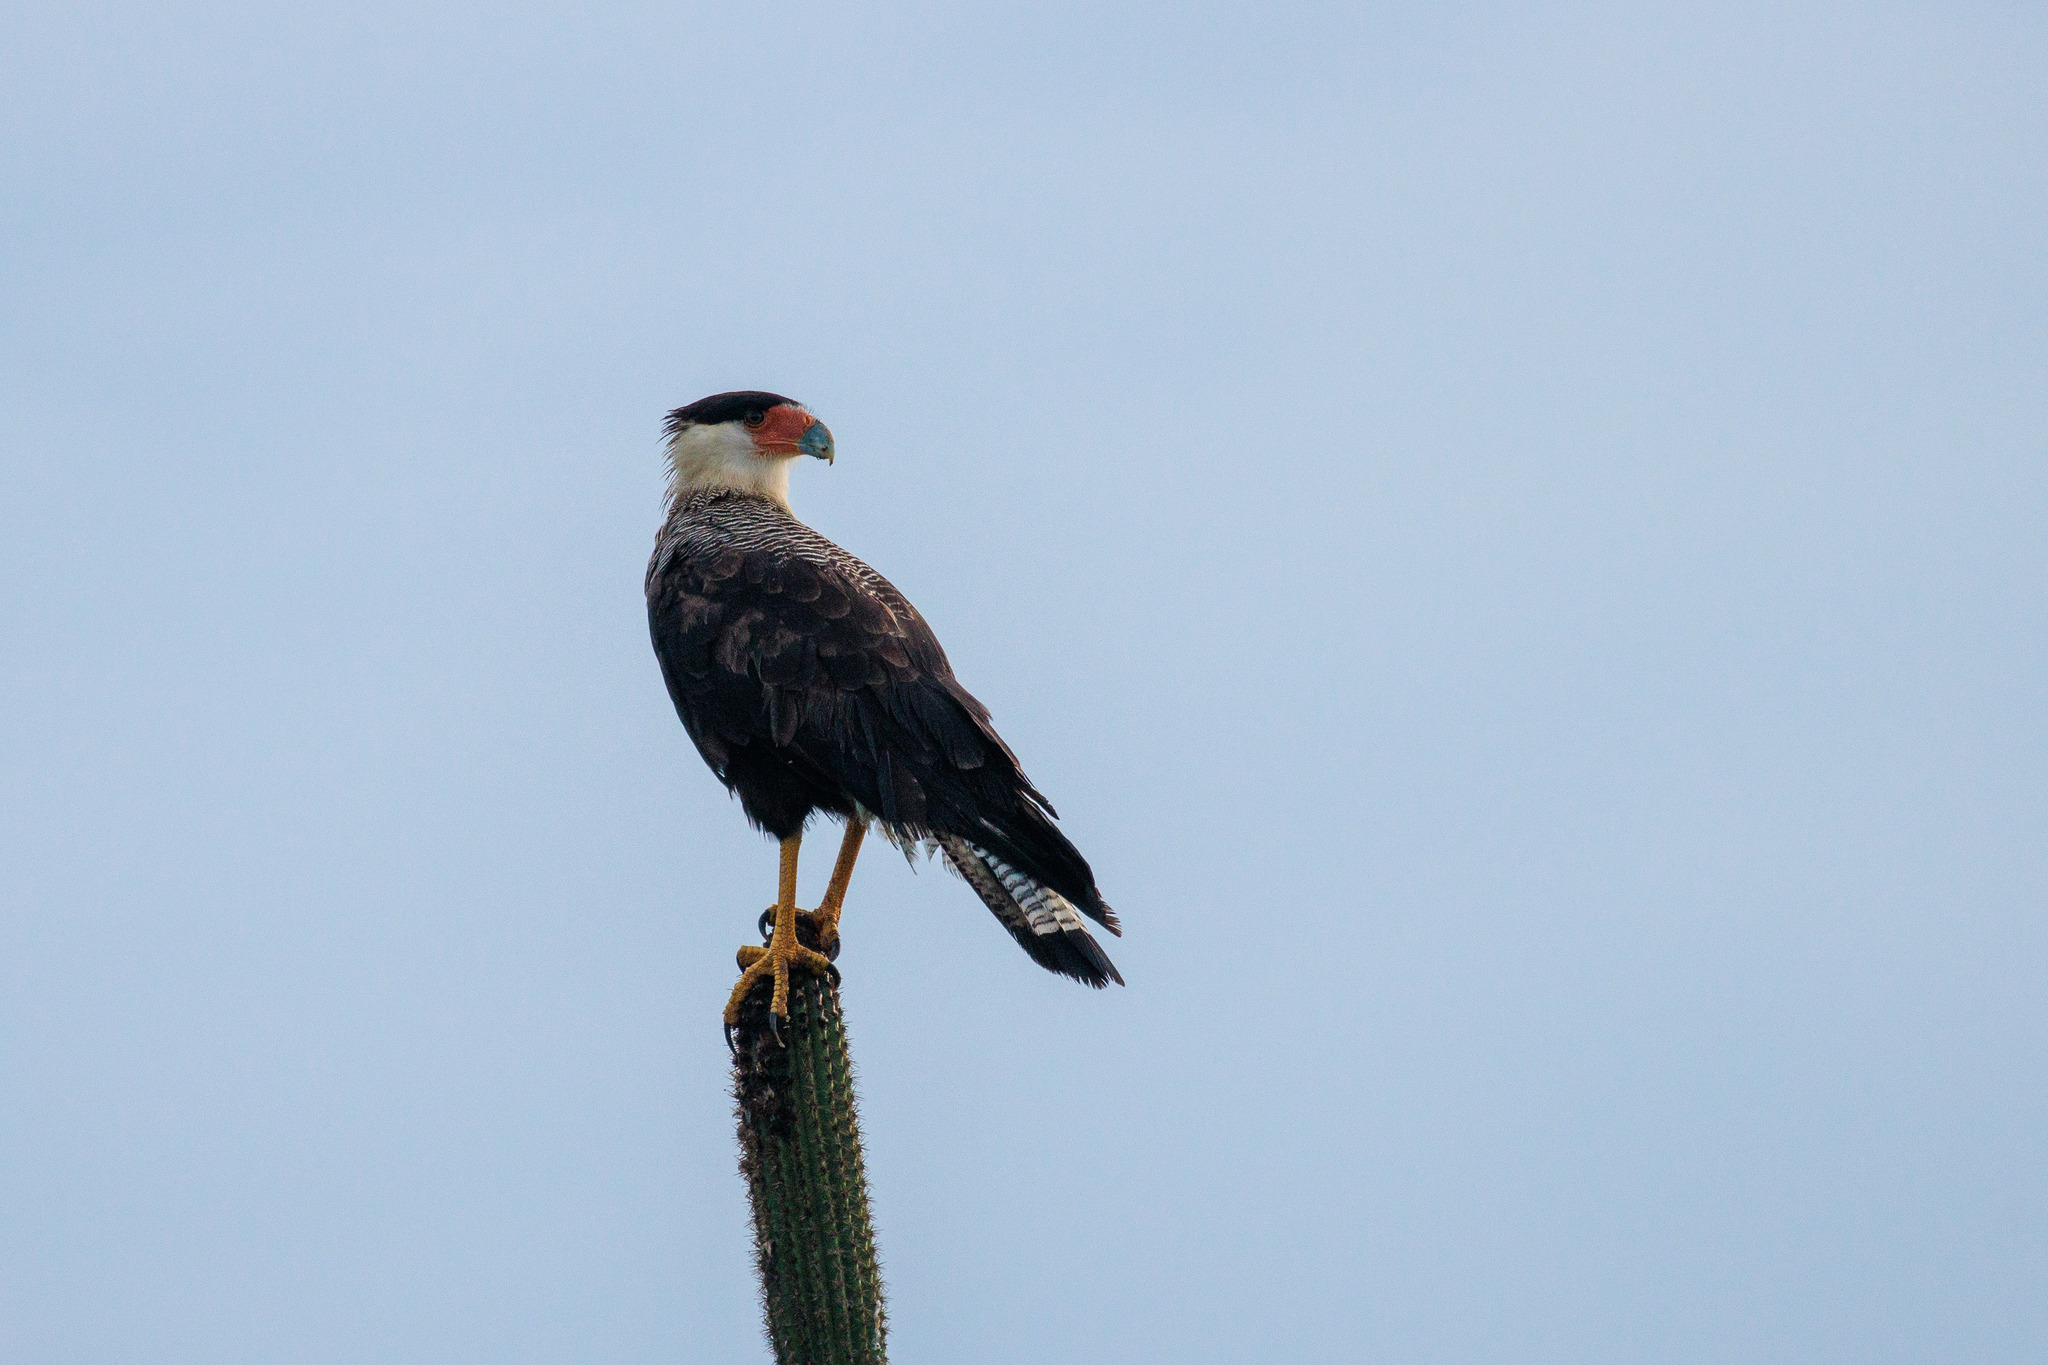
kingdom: Animalia
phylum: Chordata
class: Aves
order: Falconiformes
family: Falconidae
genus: Caracara
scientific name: Caracara plancus
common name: Southern caracara
